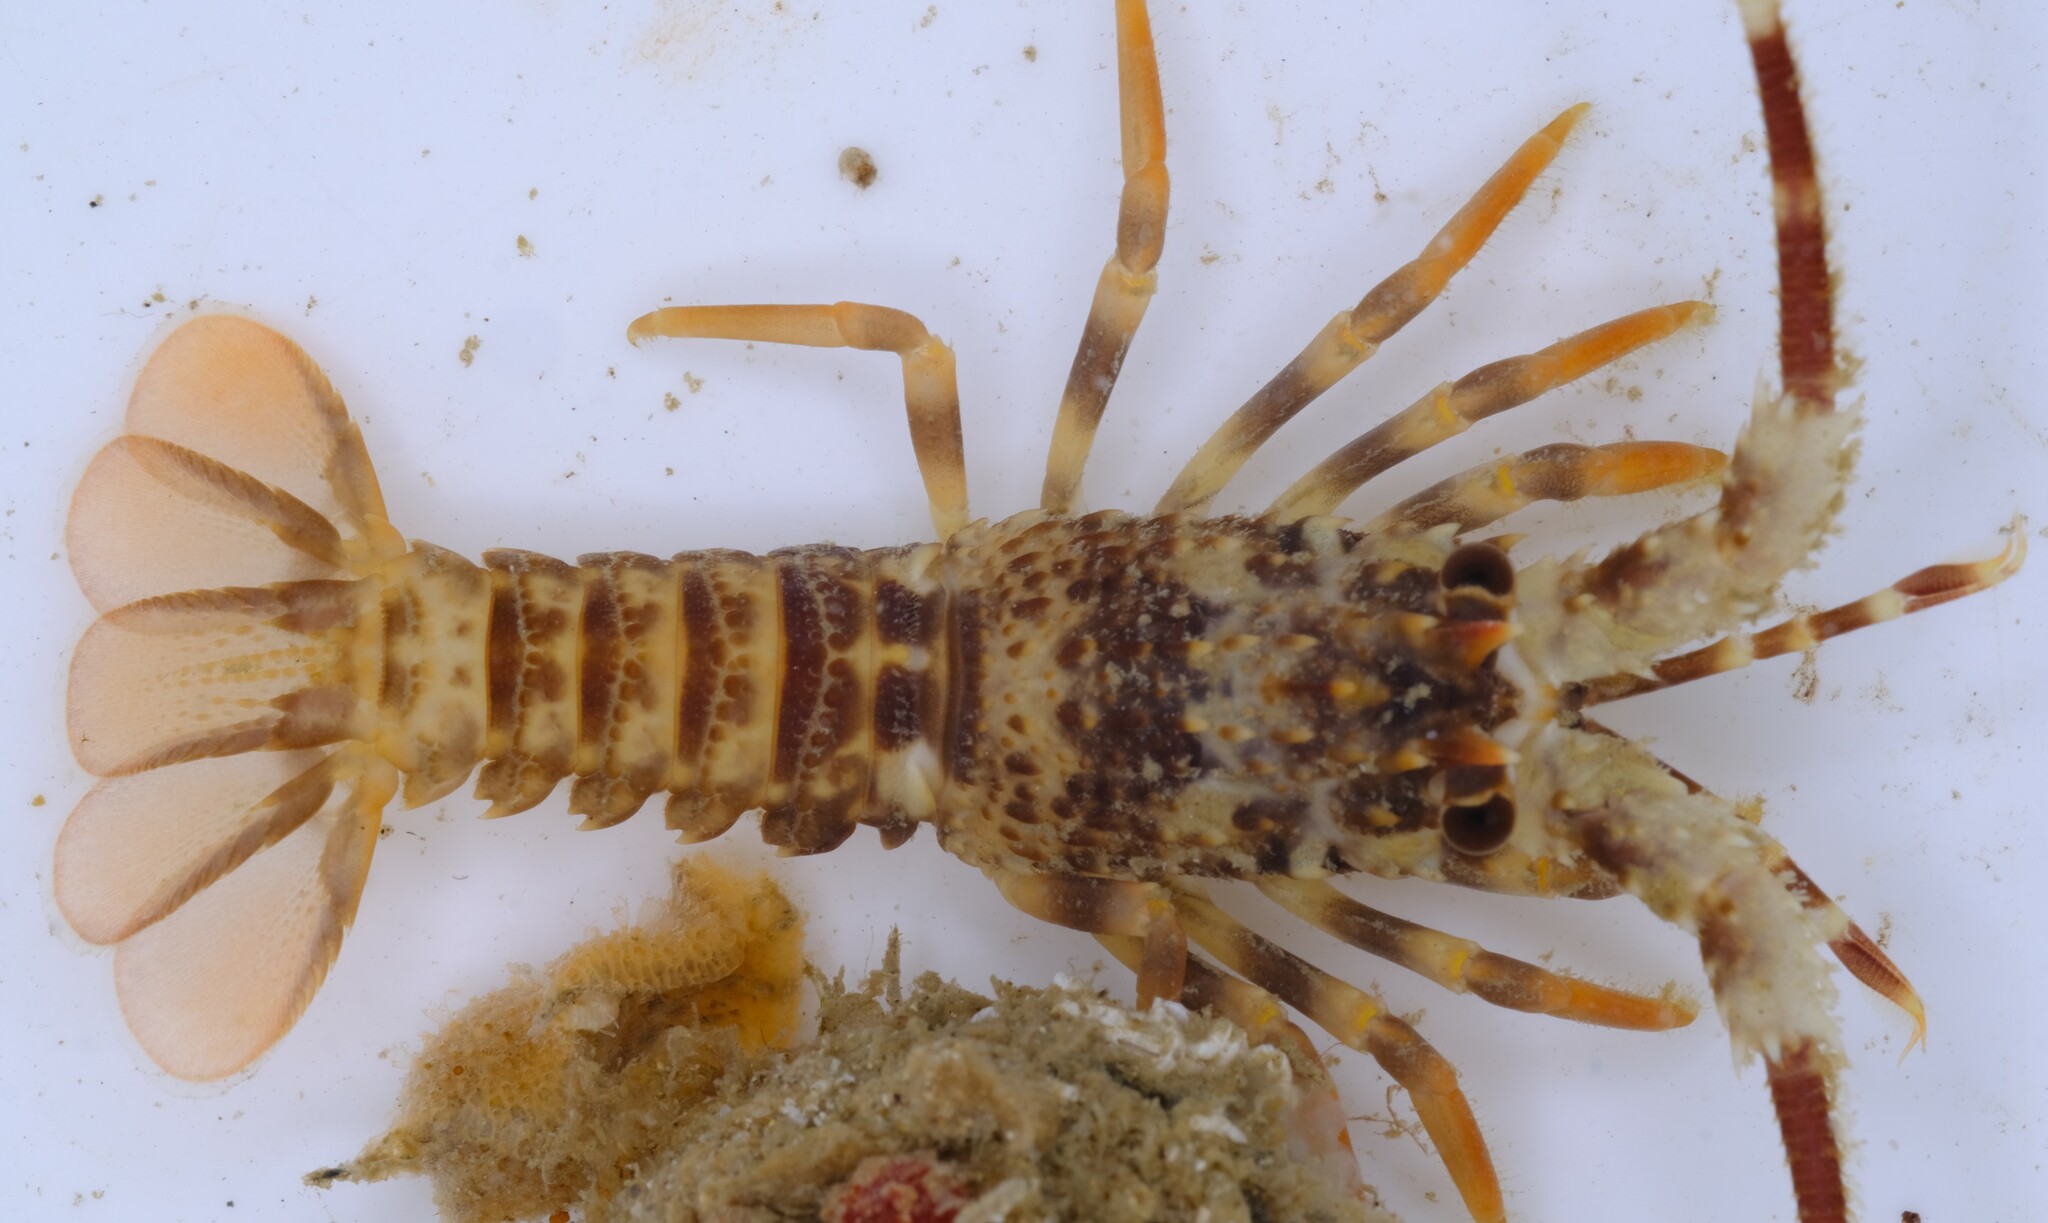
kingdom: Animalia
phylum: Arthropoda
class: Malacostraca
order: Decapoda
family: Palinuridae
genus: Jasus
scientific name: Jasus edwardsii
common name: Red rock lobster
